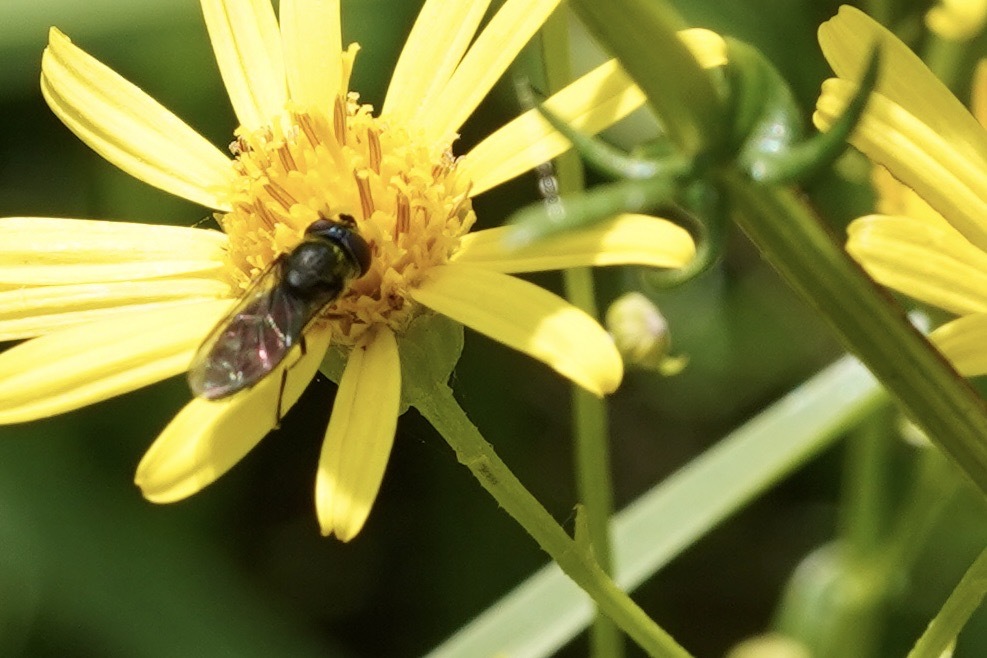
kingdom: Animalia
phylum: Arthropoda
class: Insecta
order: Diptera
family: Syrphidae
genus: Platycheirus
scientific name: Platycheirus albimanus
